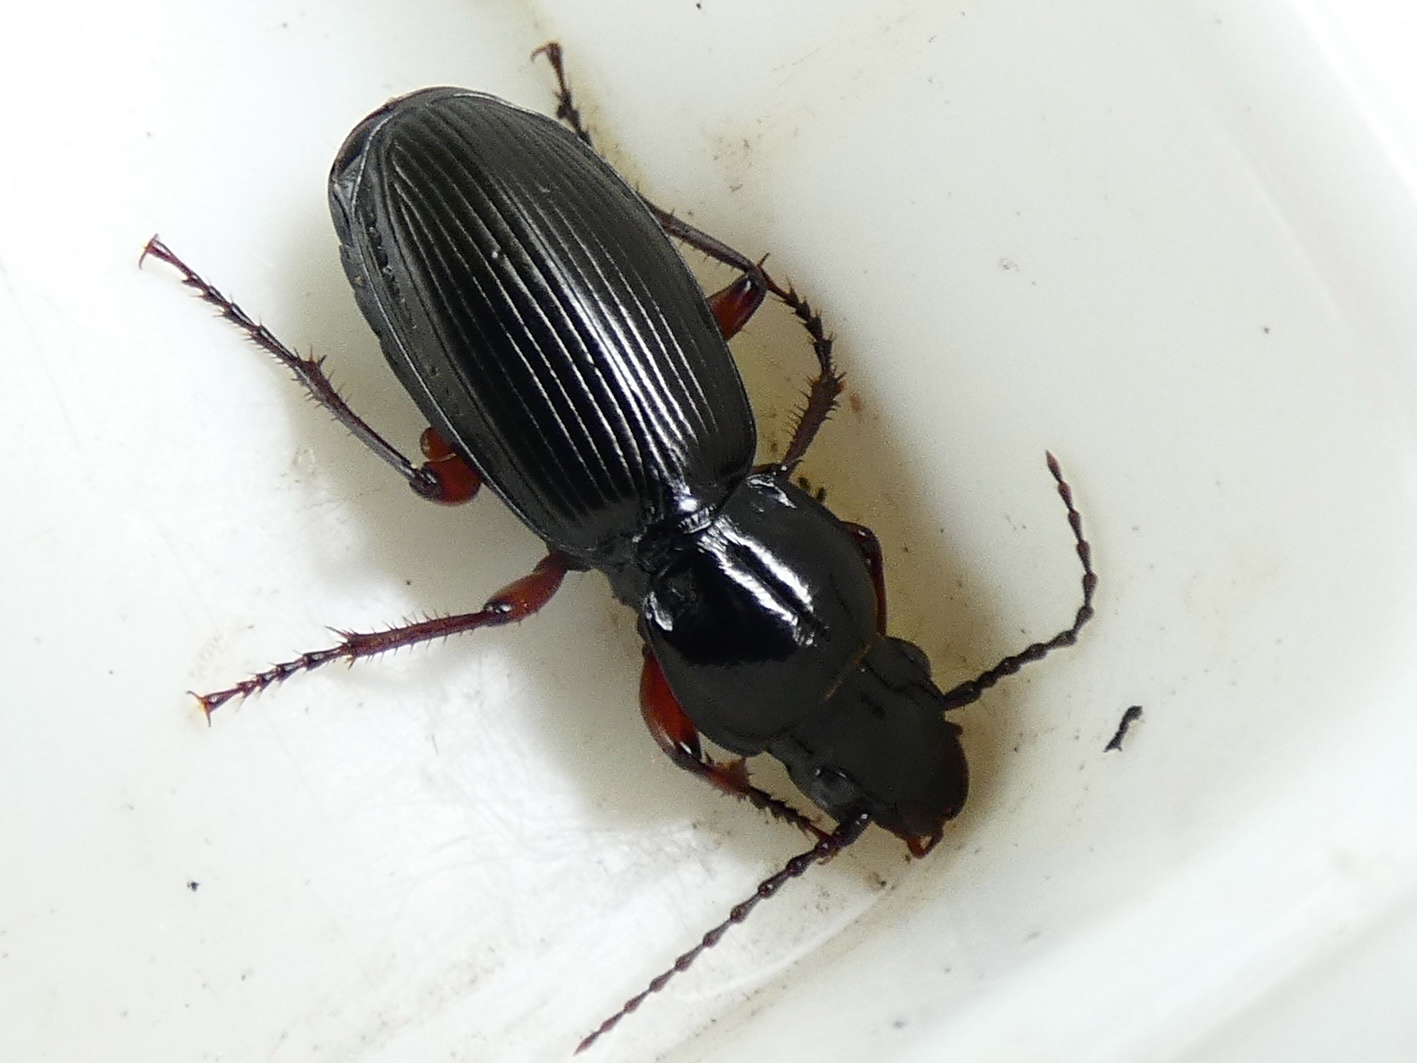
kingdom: Animalia
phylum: Arthropoda
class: Insecta
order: Coleoptera
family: Carabidae
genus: Pterostichus
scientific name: Pterostichus madidus
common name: Black clock
